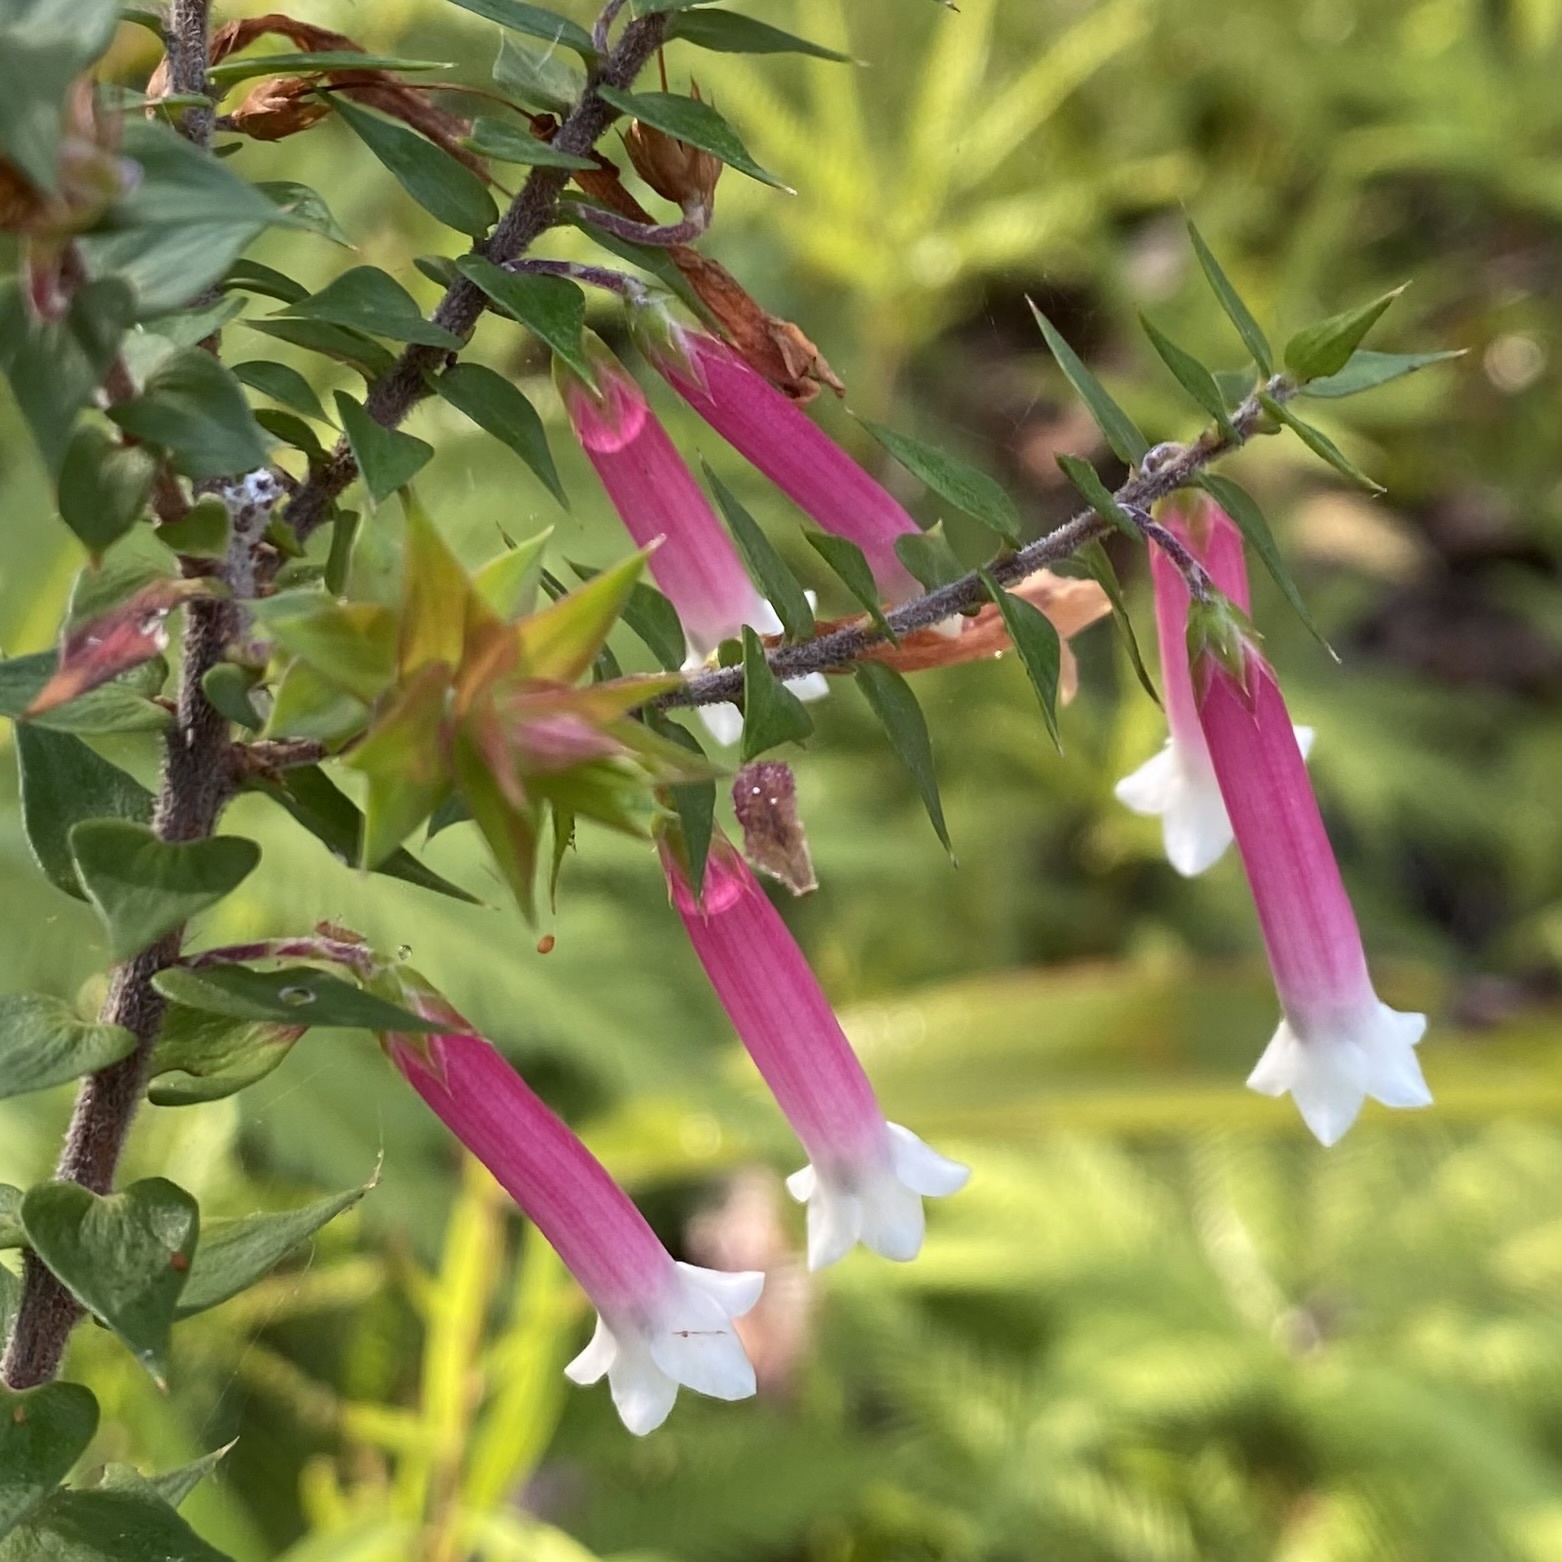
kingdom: Plantae
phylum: Tracheophyta
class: Magnoliopsida
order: Ericales
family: Ericaceae
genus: Epacris
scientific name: Epacris longiflora
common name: Fuchsia-heath
